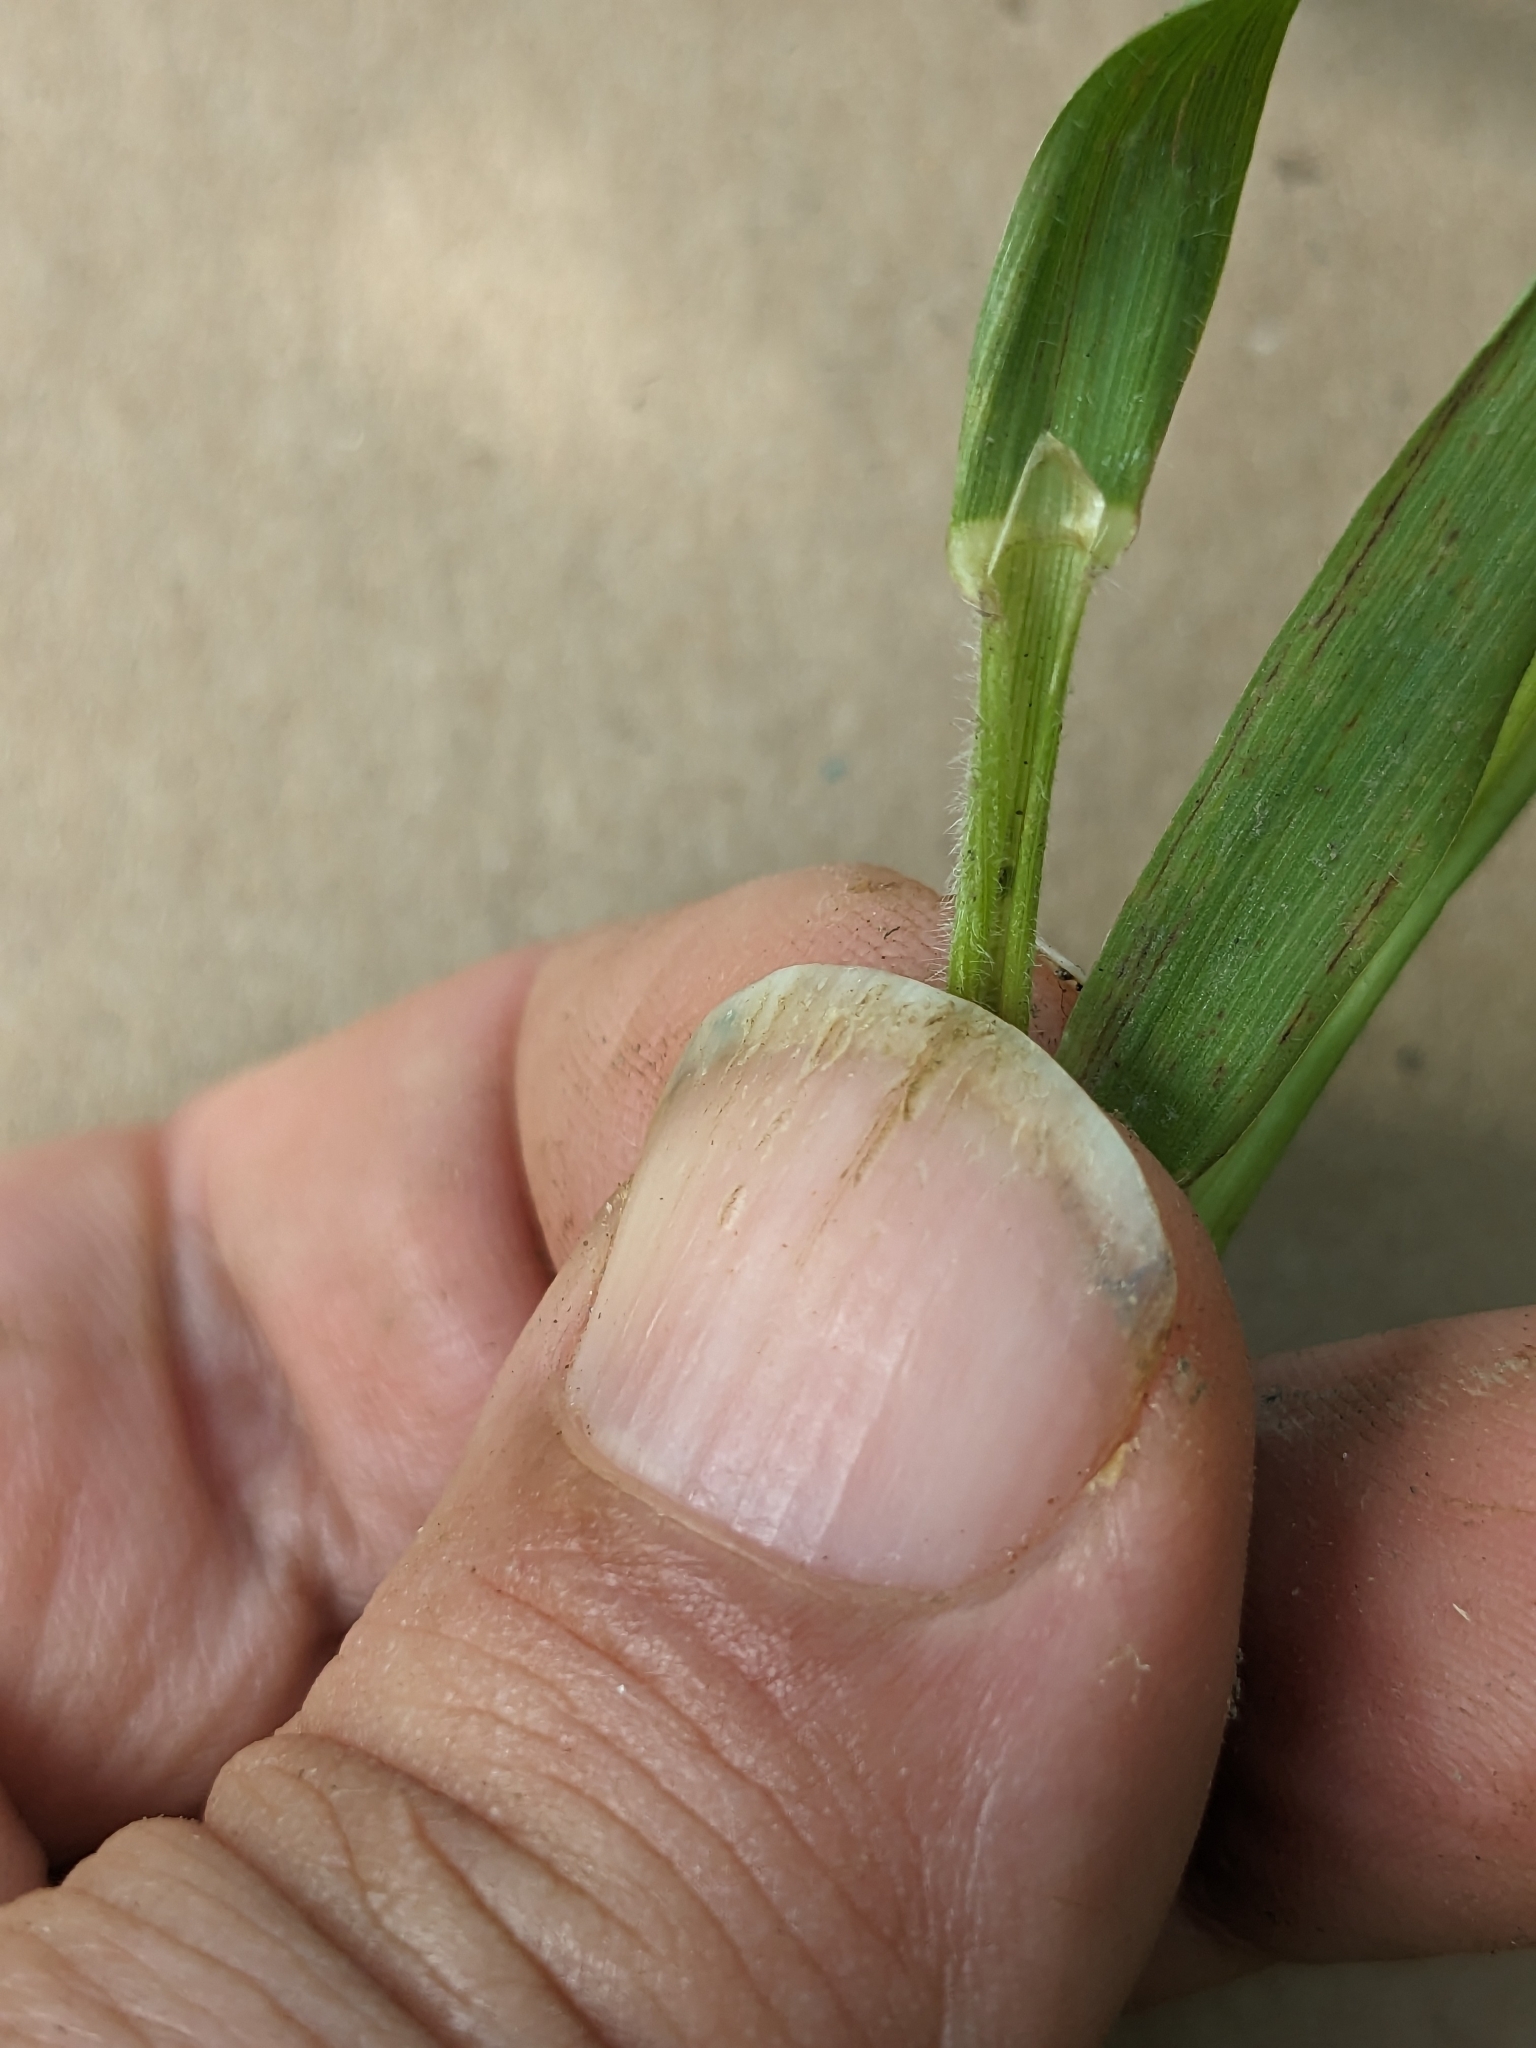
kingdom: Plantae
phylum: Tracheophyta
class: Liliopsida
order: Poales
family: Poaceae
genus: Anthoxanthum
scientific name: Anthoxanthum odoratum
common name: Sweet vernalgrass
